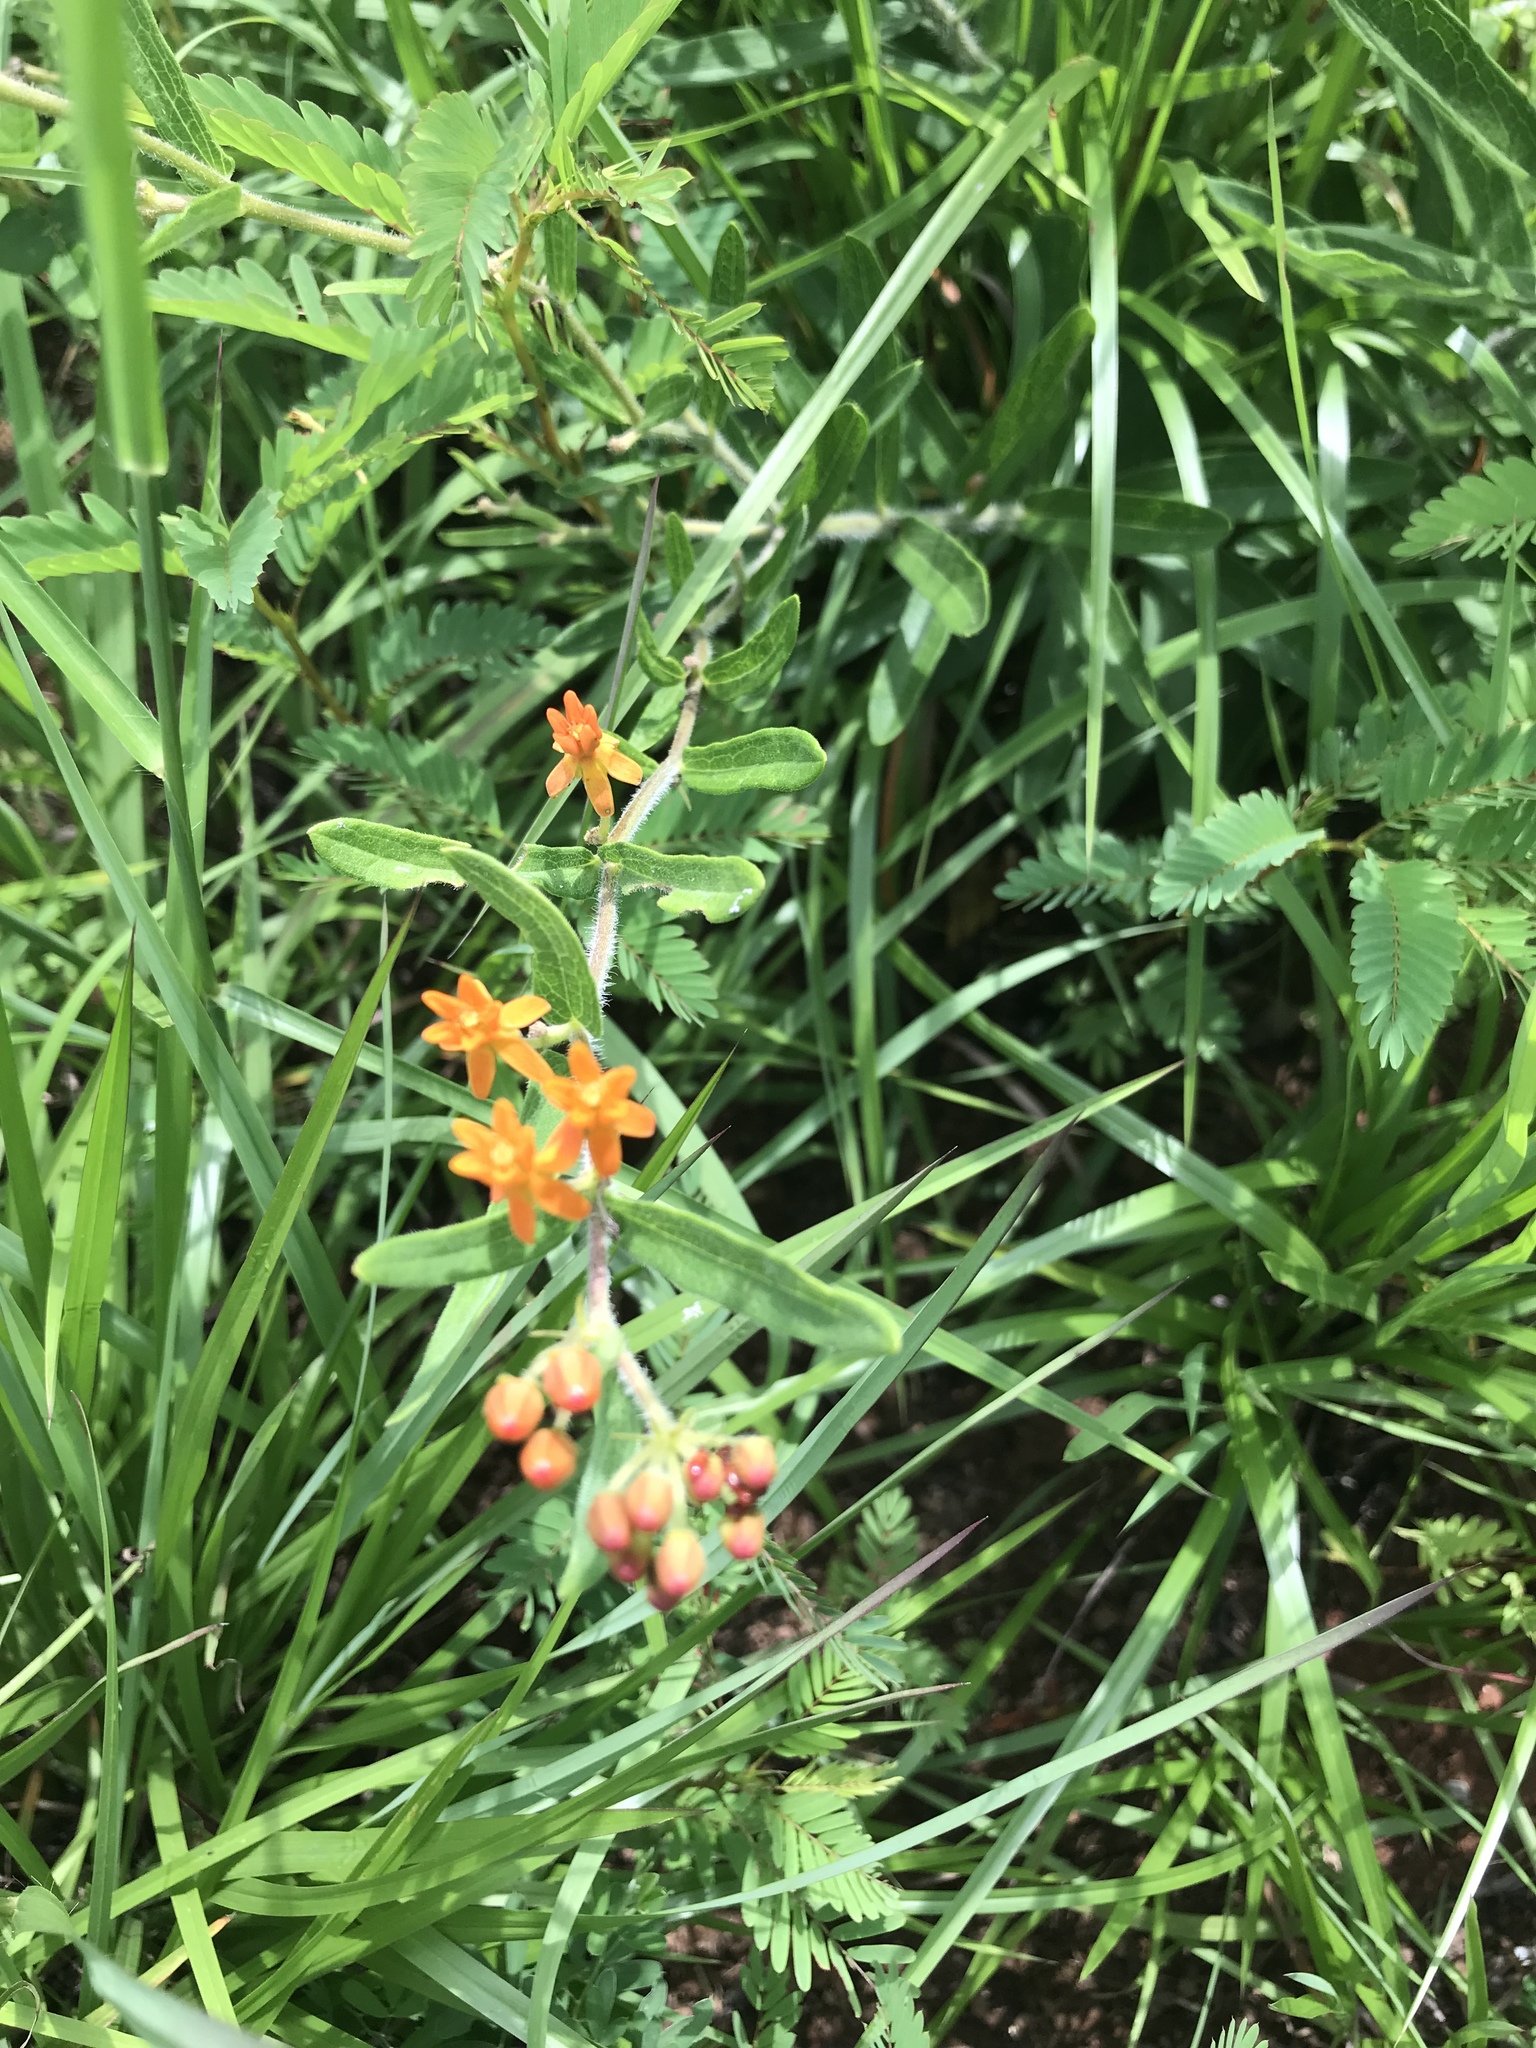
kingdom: Plantae
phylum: Tracheophyta
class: Magnoliopsida
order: Gentianales
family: Apocynaceae
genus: Asclepias
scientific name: Asclepias tuberosa
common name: Butterfly milkweed
